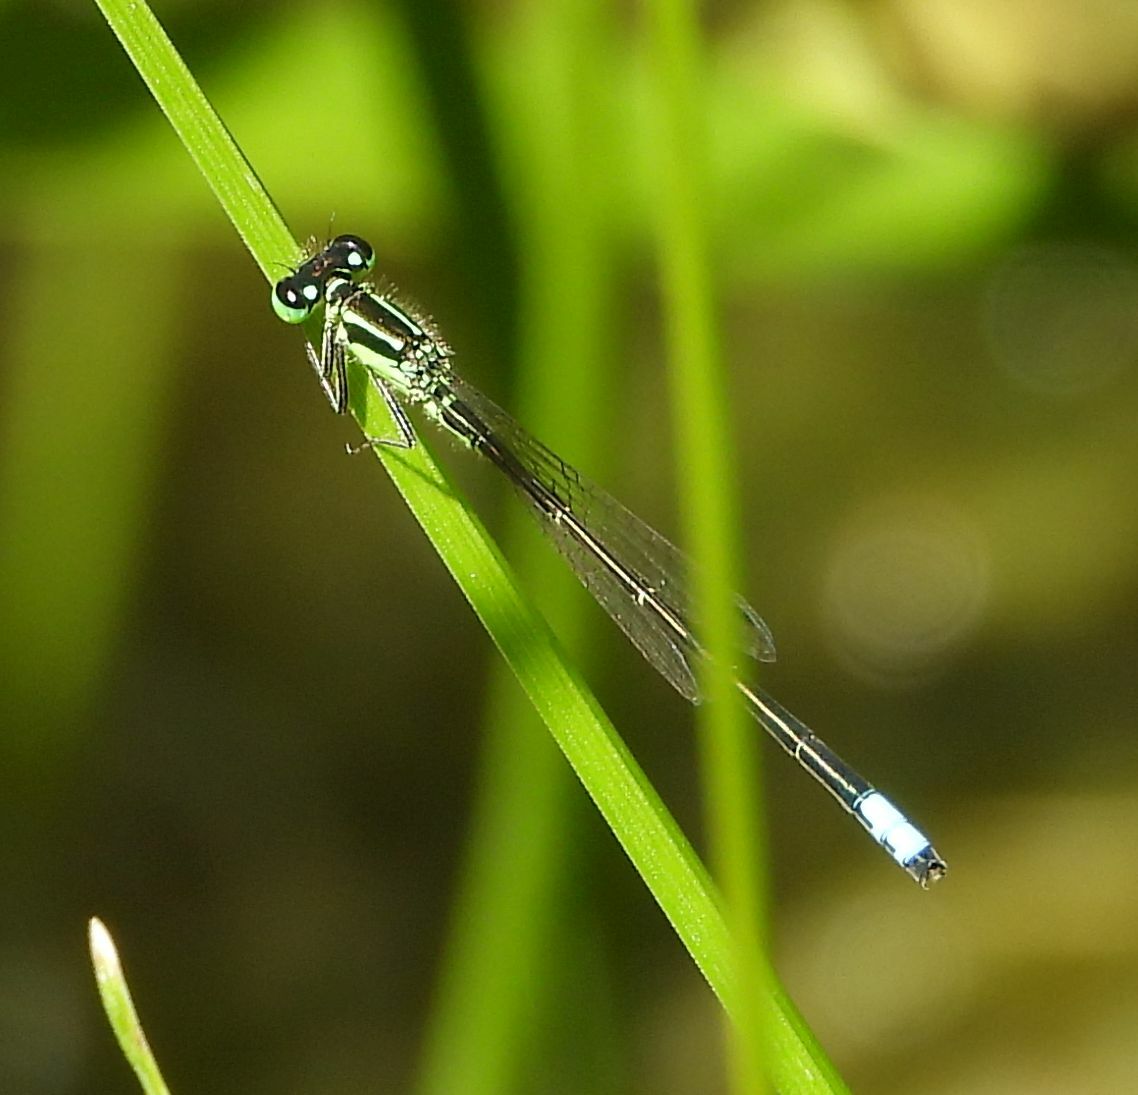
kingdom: Animalia
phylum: Arthropoda
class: Insecta
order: Odonata
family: Coenagrionidae
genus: Ischnura
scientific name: Ischnura verticalis
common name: Eastern forktail
